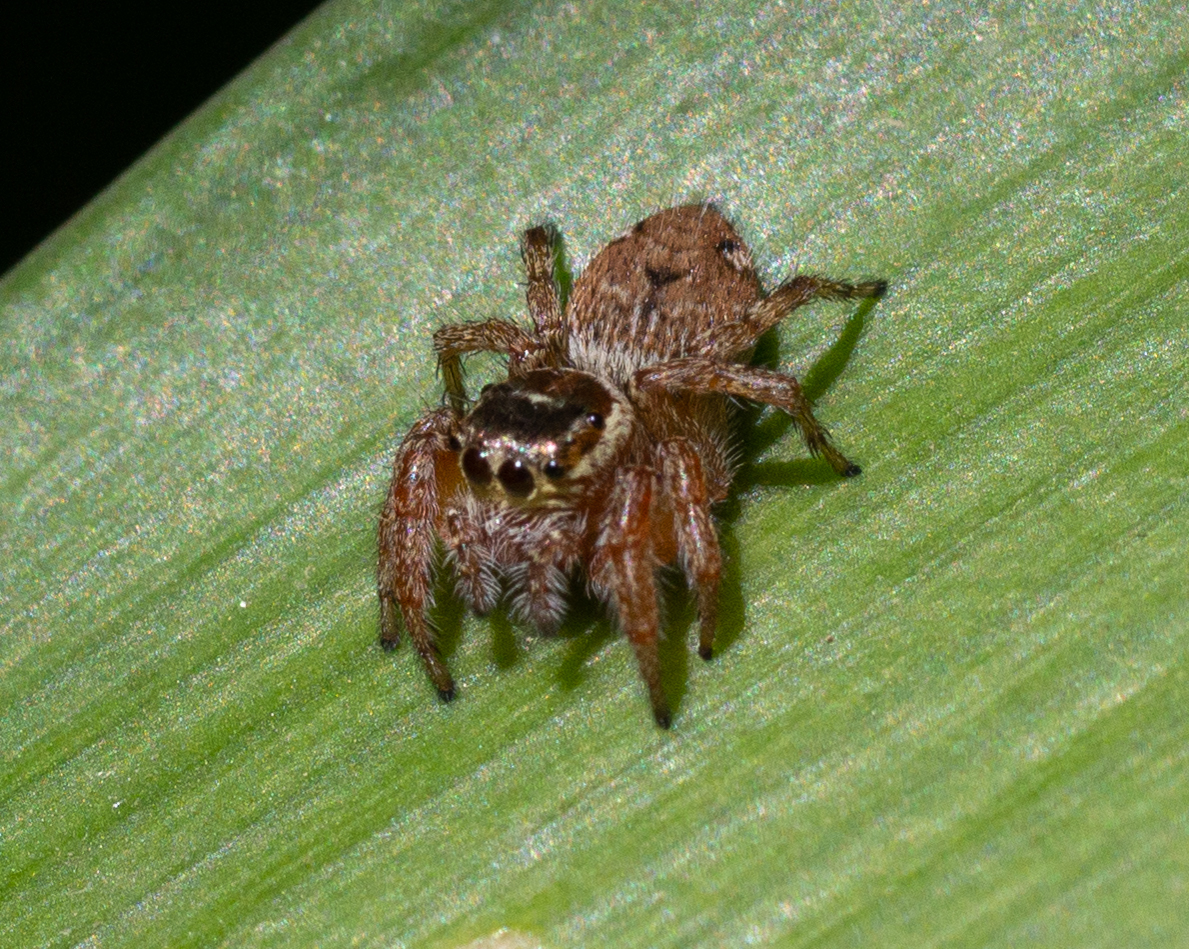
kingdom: Animalia
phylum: Arthropoda
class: Arachnida
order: Araneae
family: Salticidae
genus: Evarcha
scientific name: Evarcha jucunda
